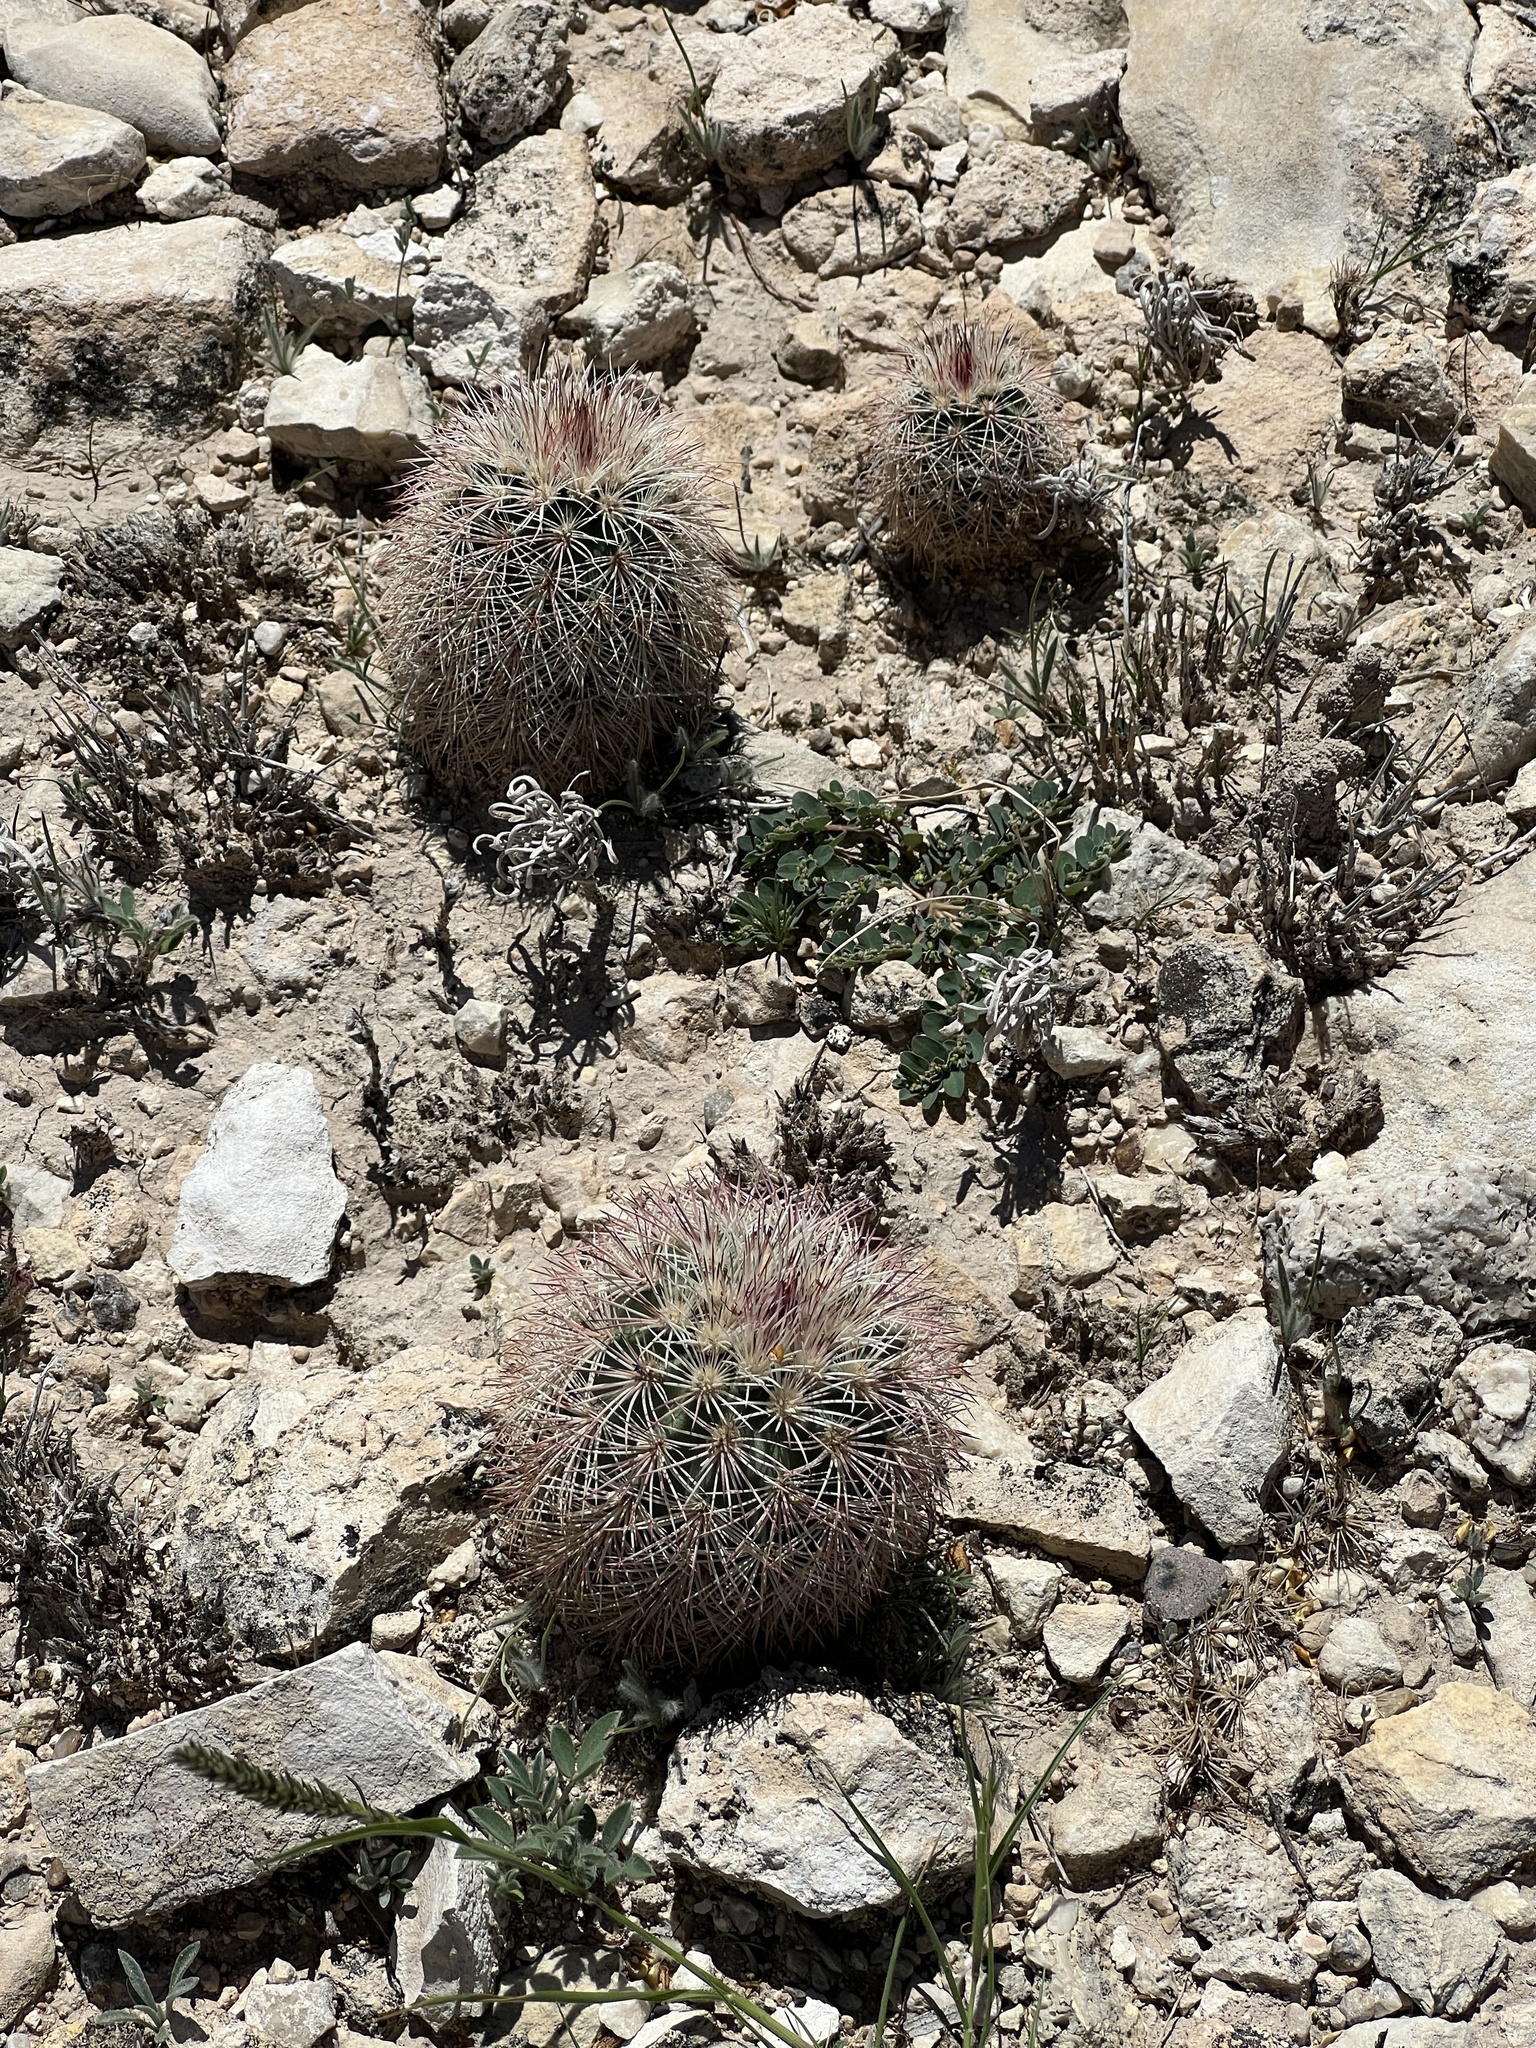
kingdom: Plantae
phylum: Tracheophyta
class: Magnoliopsida
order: Caryophyllales
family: Cactaceae
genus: Echinocereus
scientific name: Echinocereus dasyacanthus
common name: Spiny hedgehog cactus
